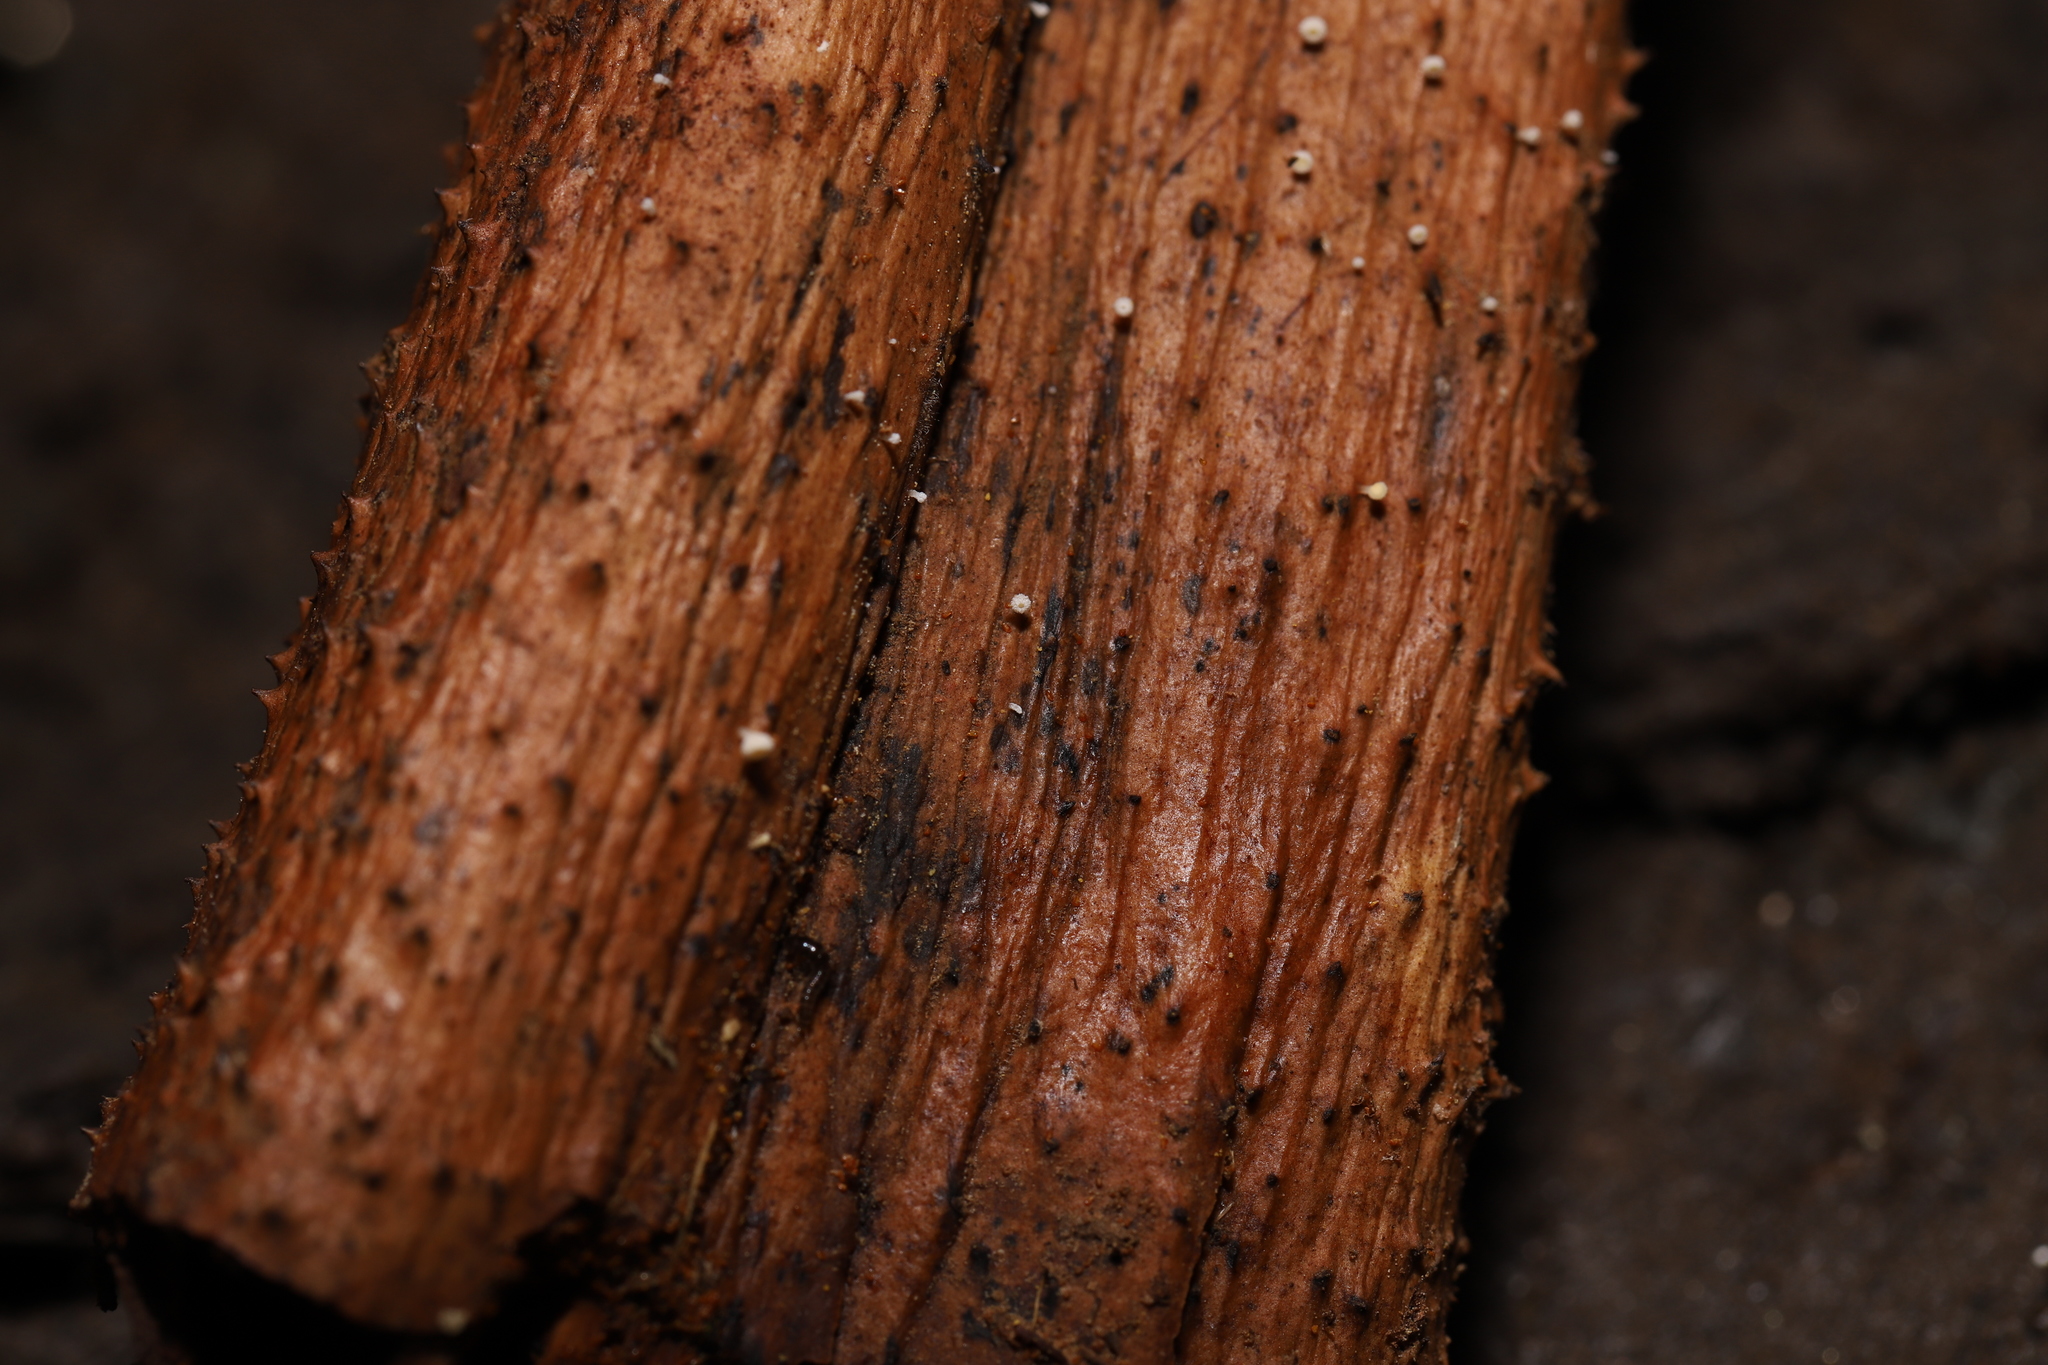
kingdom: Fungi
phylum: Ascomycota
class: Leotiomycetes
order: Helotiales
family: Lachnaceae
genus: Lachnum
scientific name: Lachnum varians
